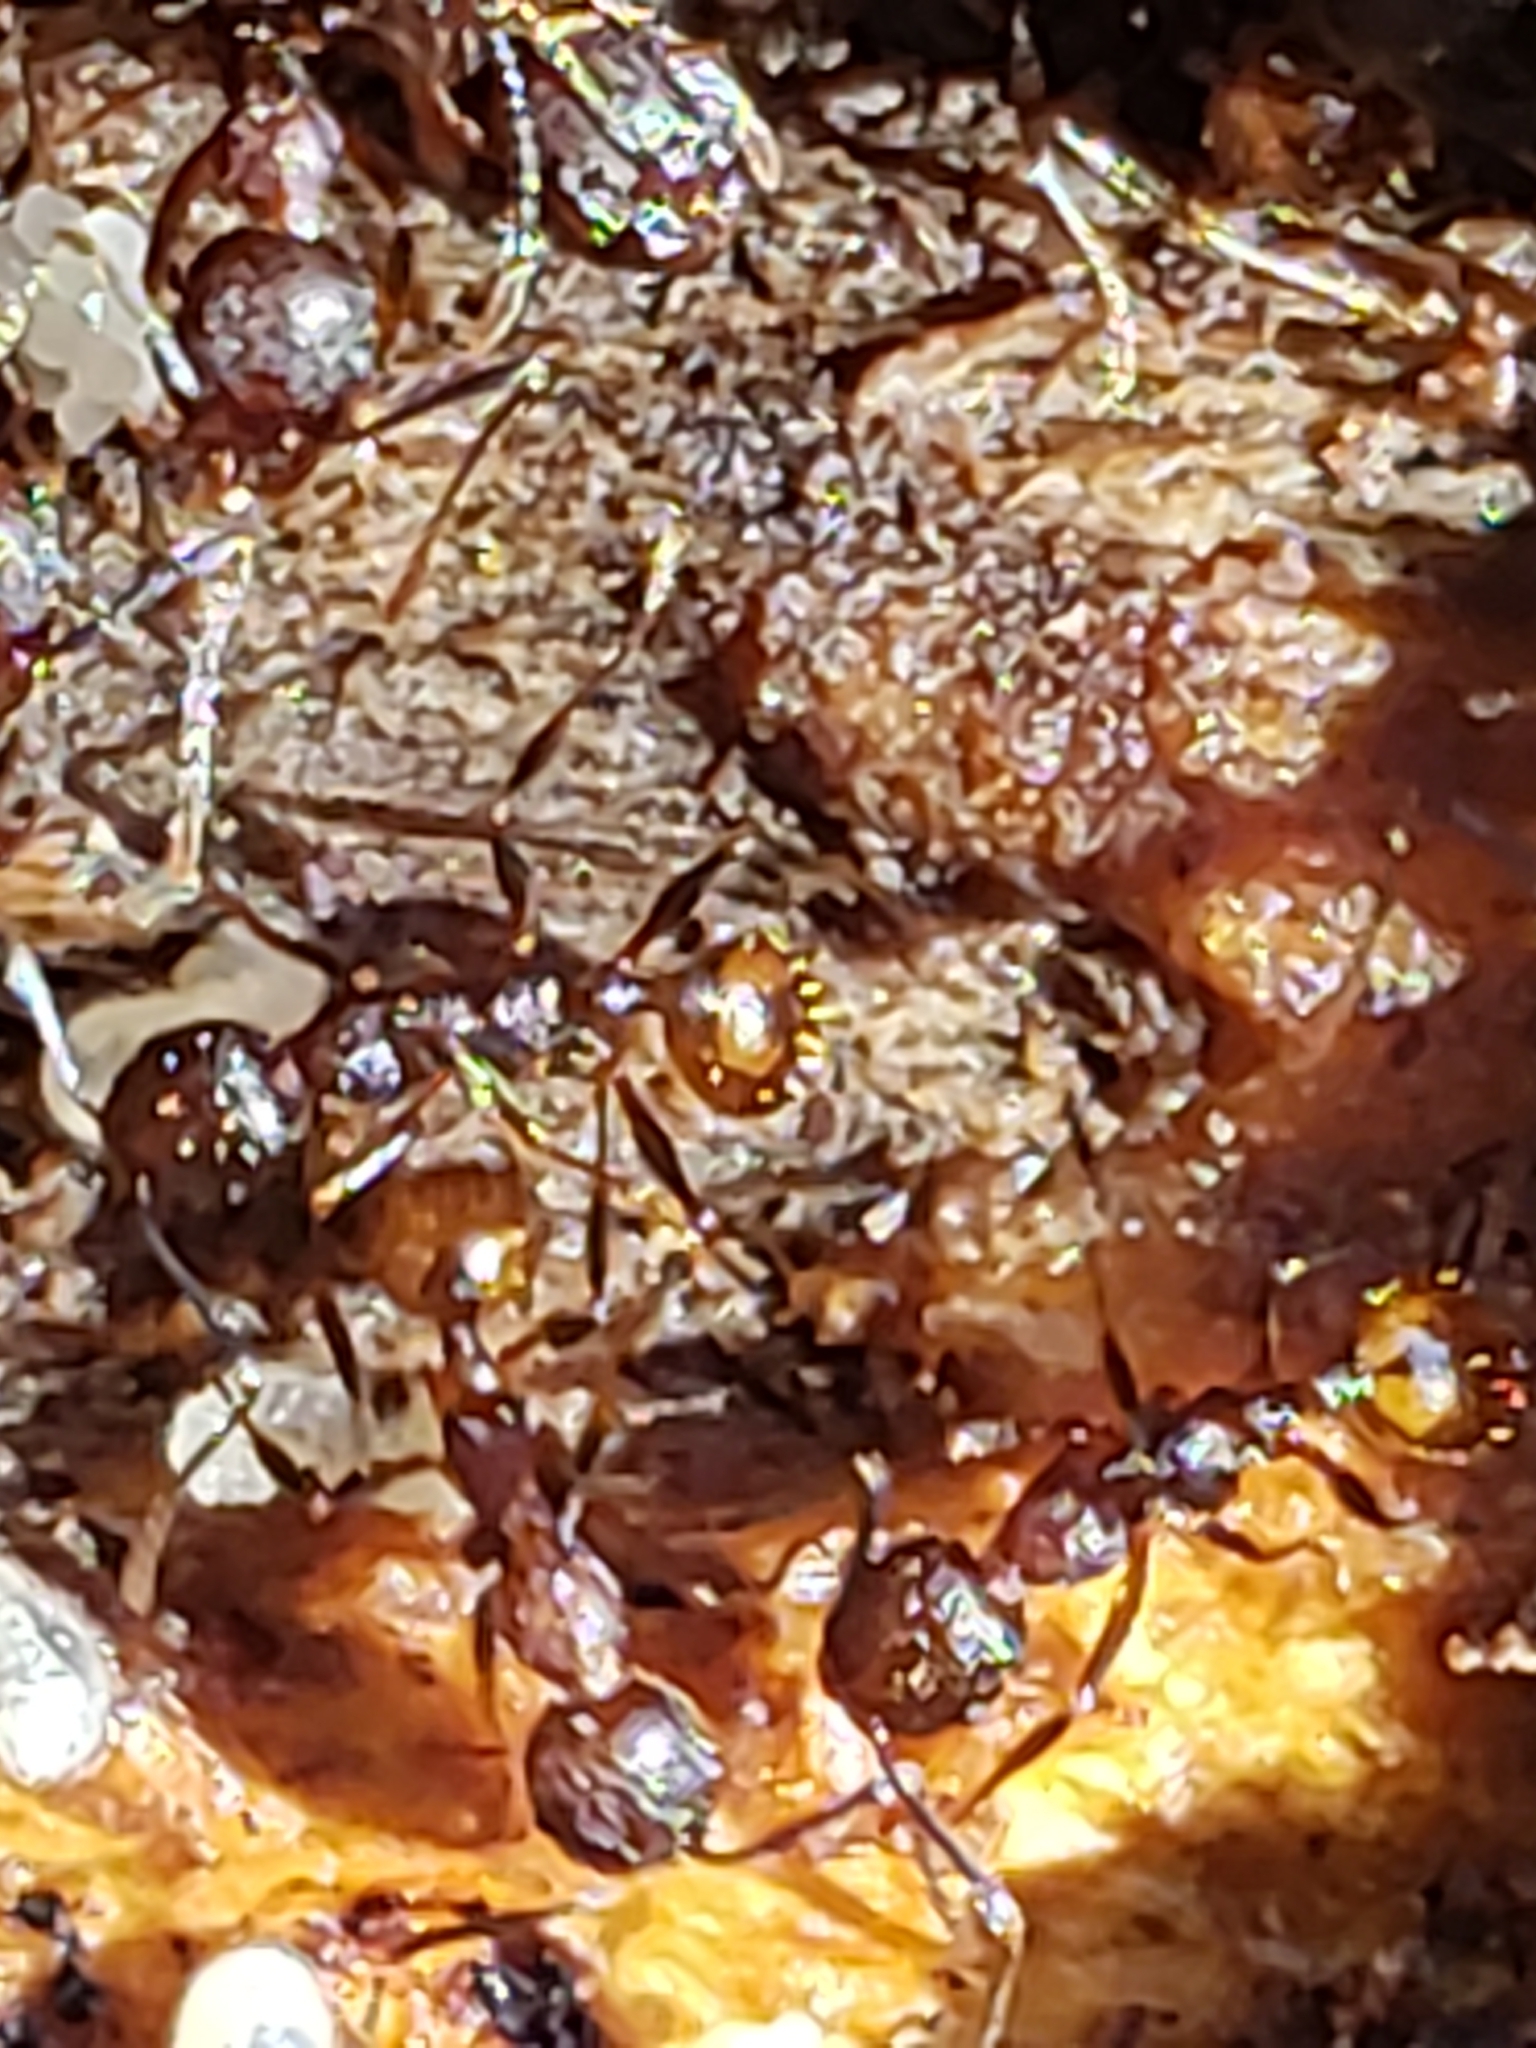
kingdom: Animalia
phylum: Arthropoda
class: Insecta
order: Hymenoptera
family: Formicidae
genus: Aphaenogaster
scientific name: Aphaenogaster fulva
